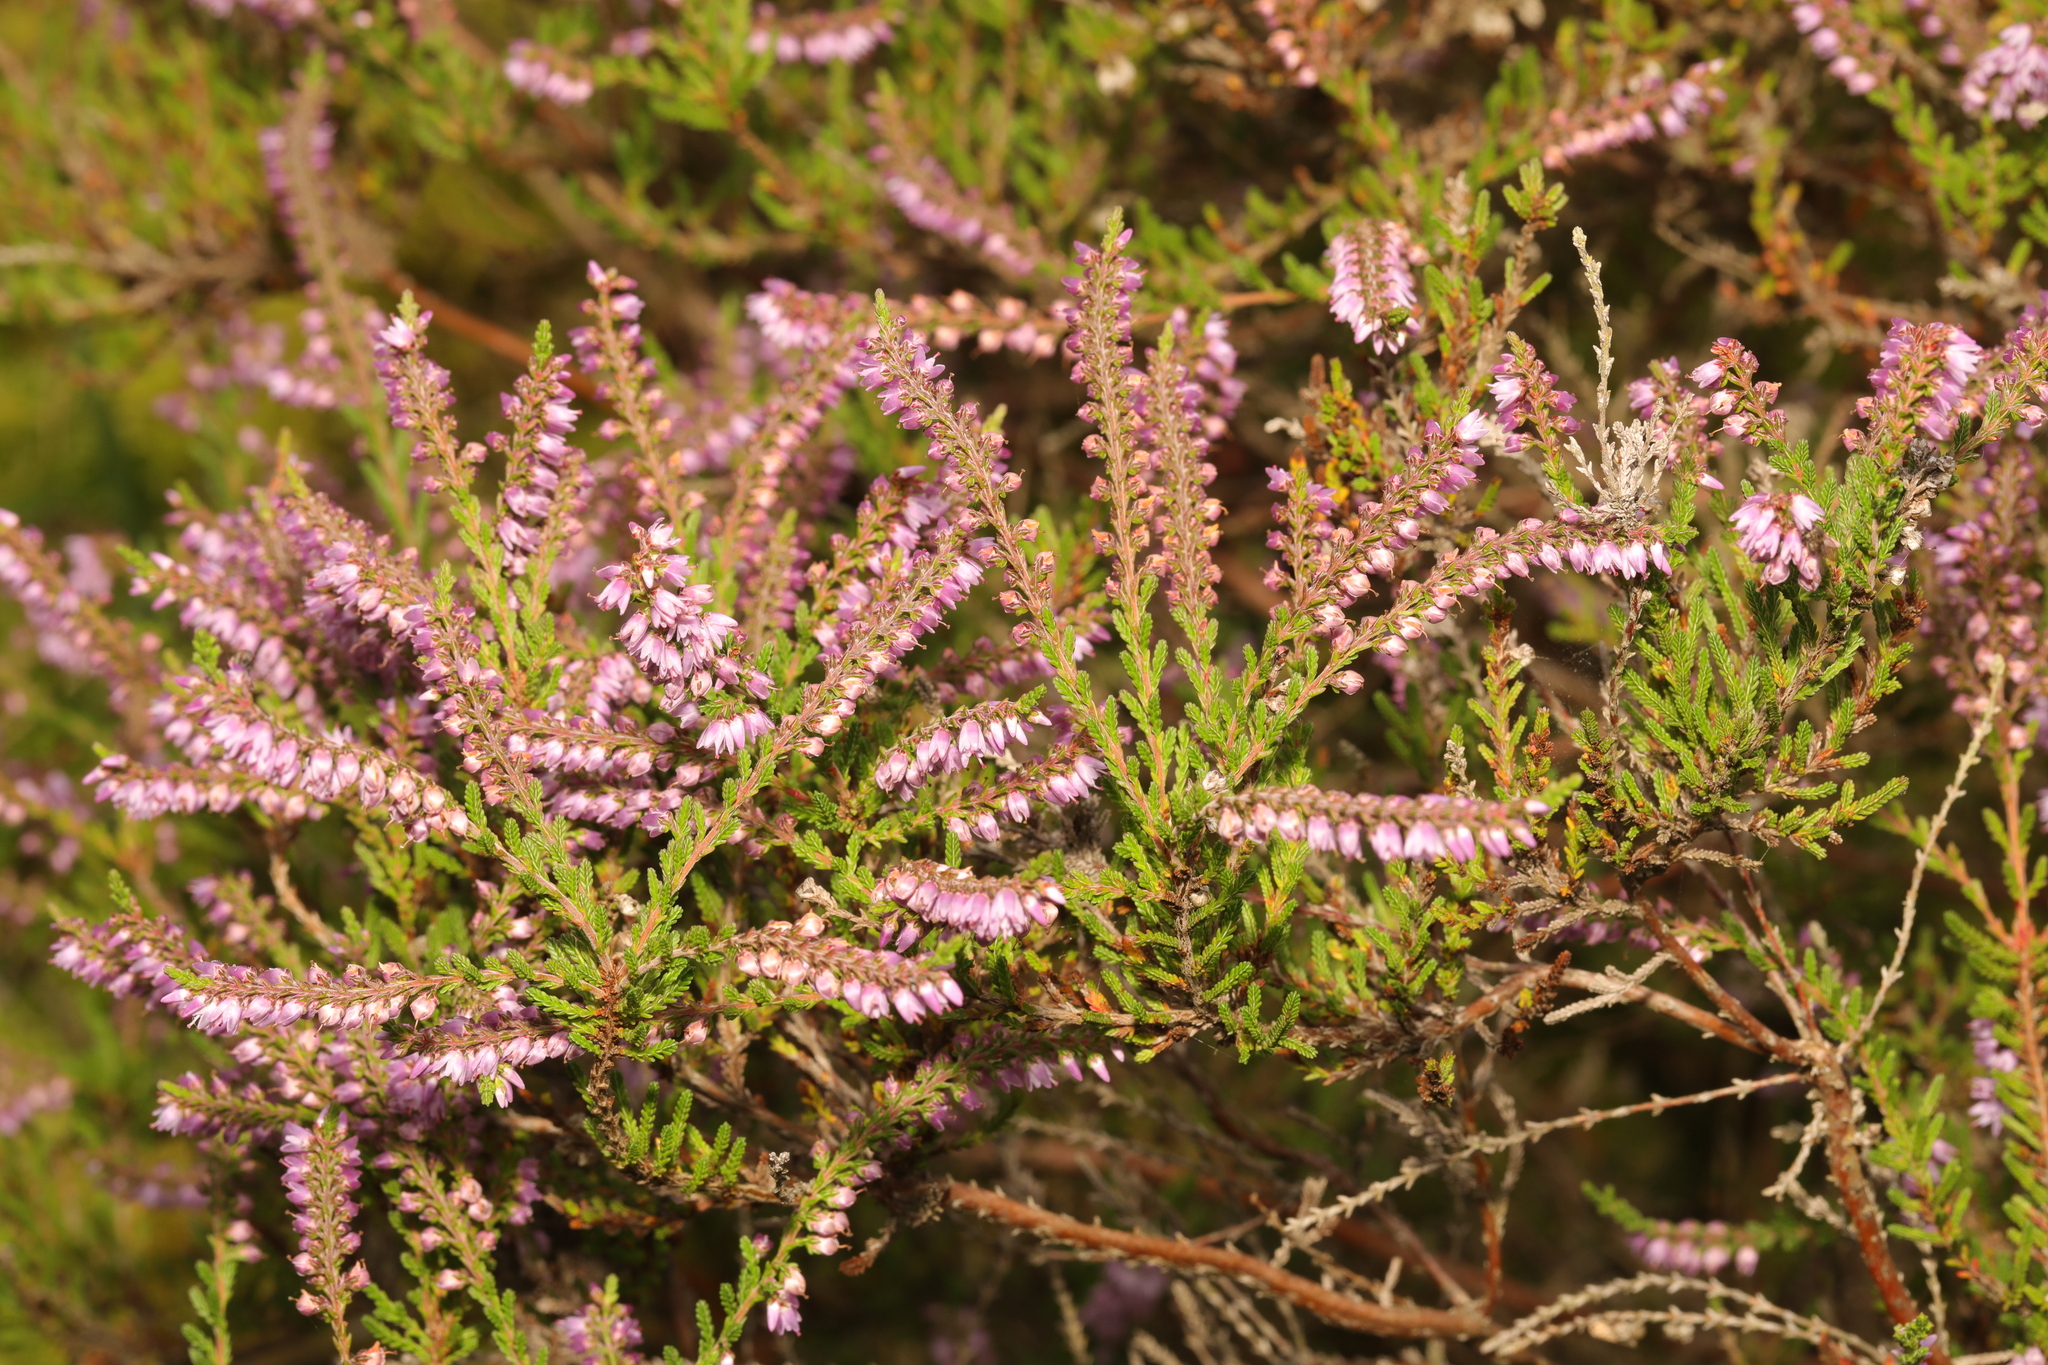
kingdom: Plantae
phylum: Tracheophyta
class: Magnoliopsida
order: Ericales
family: Ericaceae
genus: Calluna
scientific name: Calluna vulgaris
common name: Heather
